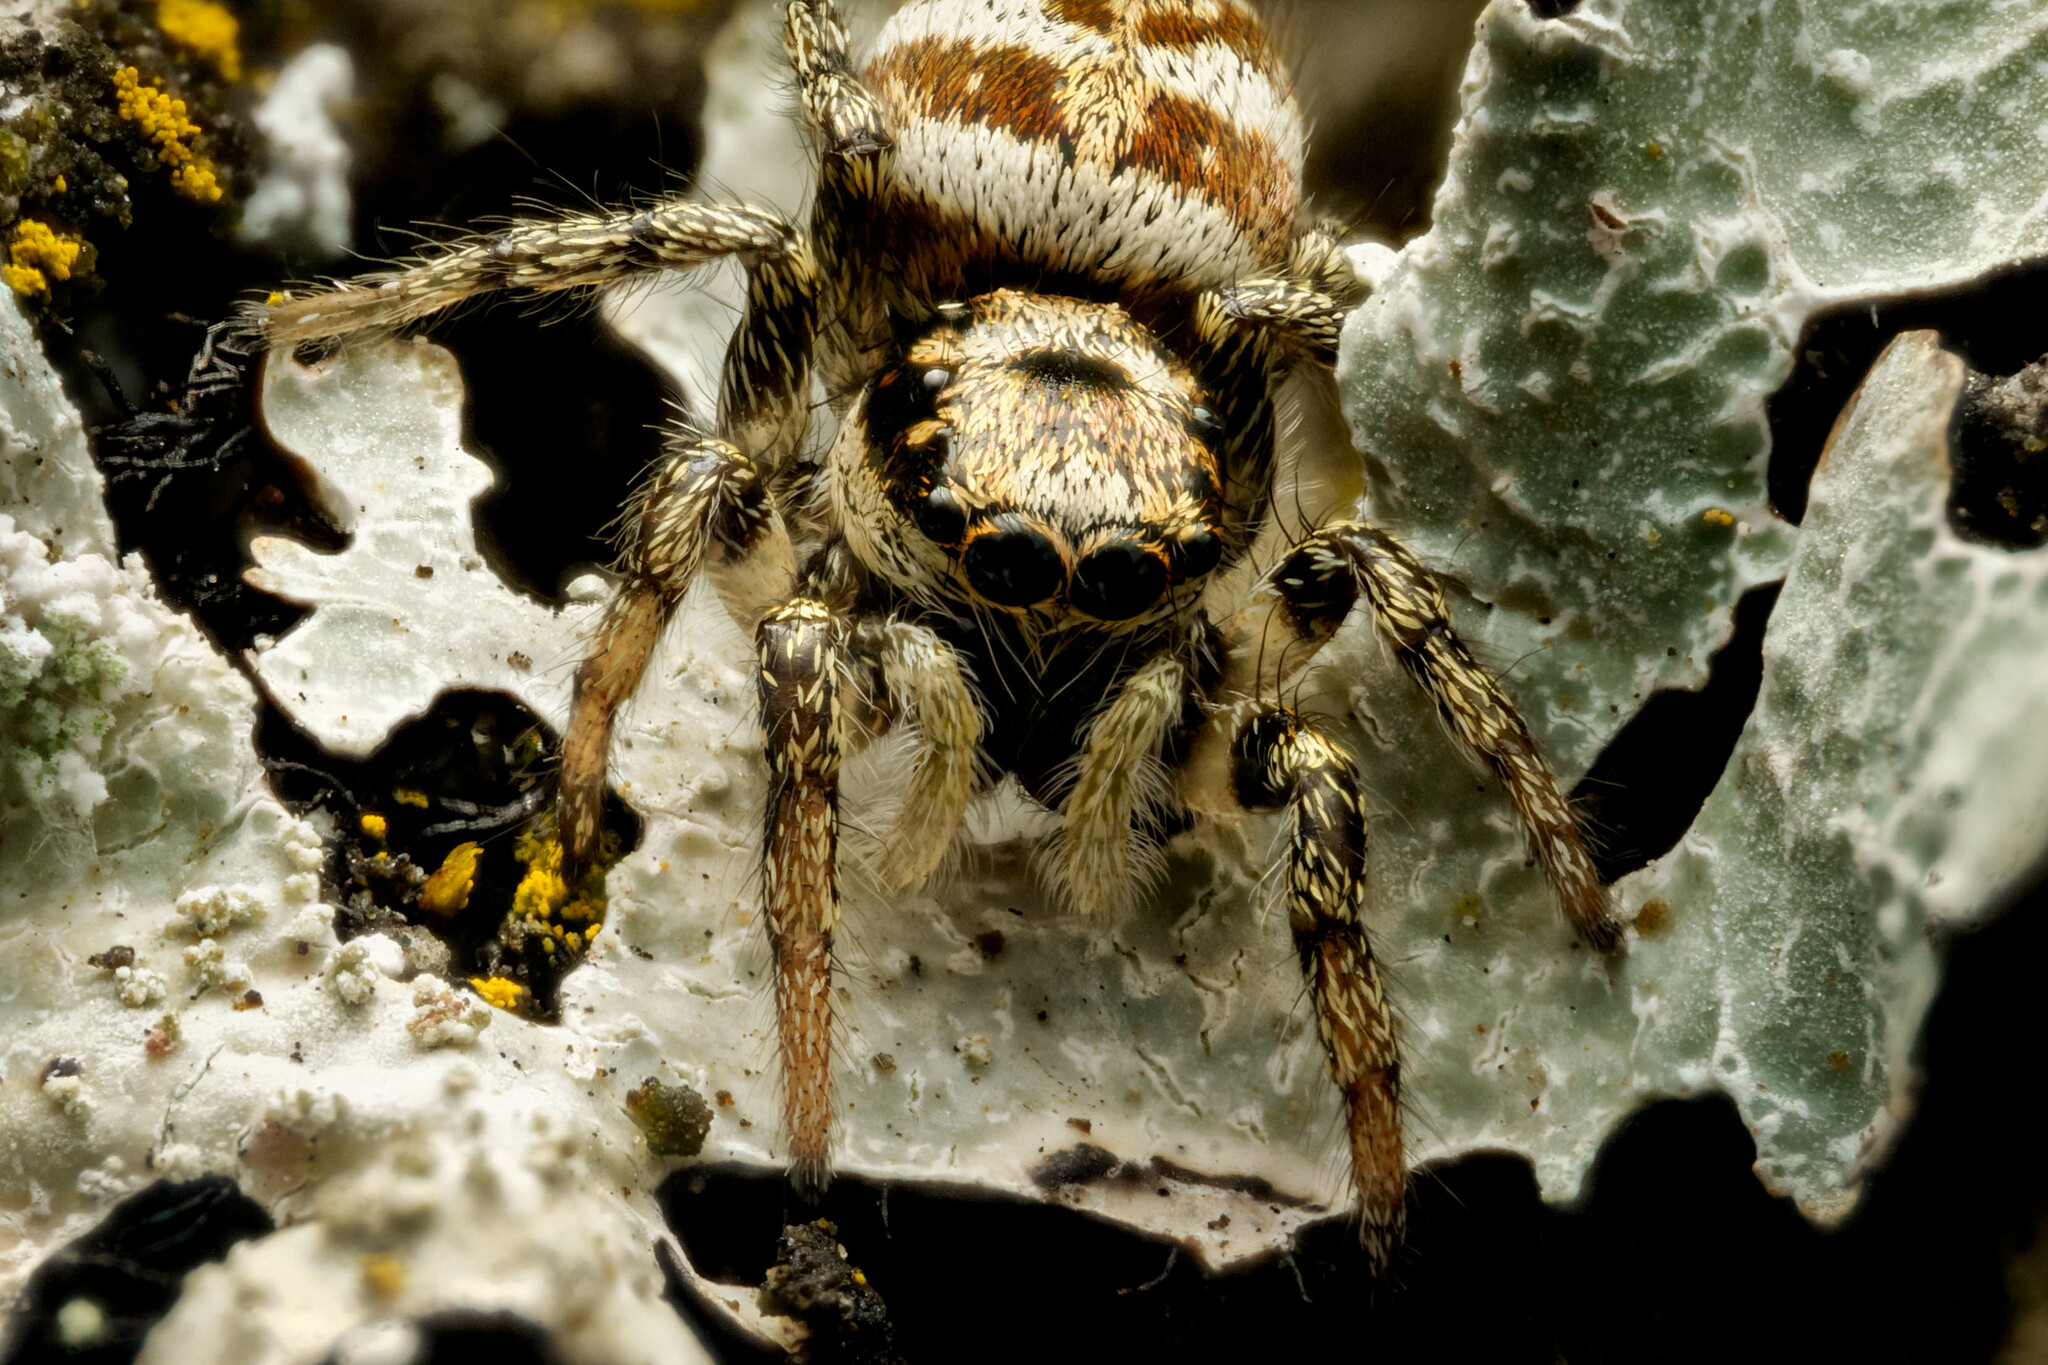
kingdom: Animalia
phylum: Arthropoda
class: Arachnida
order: Araneae
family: Salticidae
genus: Salticus
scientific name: Salticus scenicus
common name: Zebra jumper
